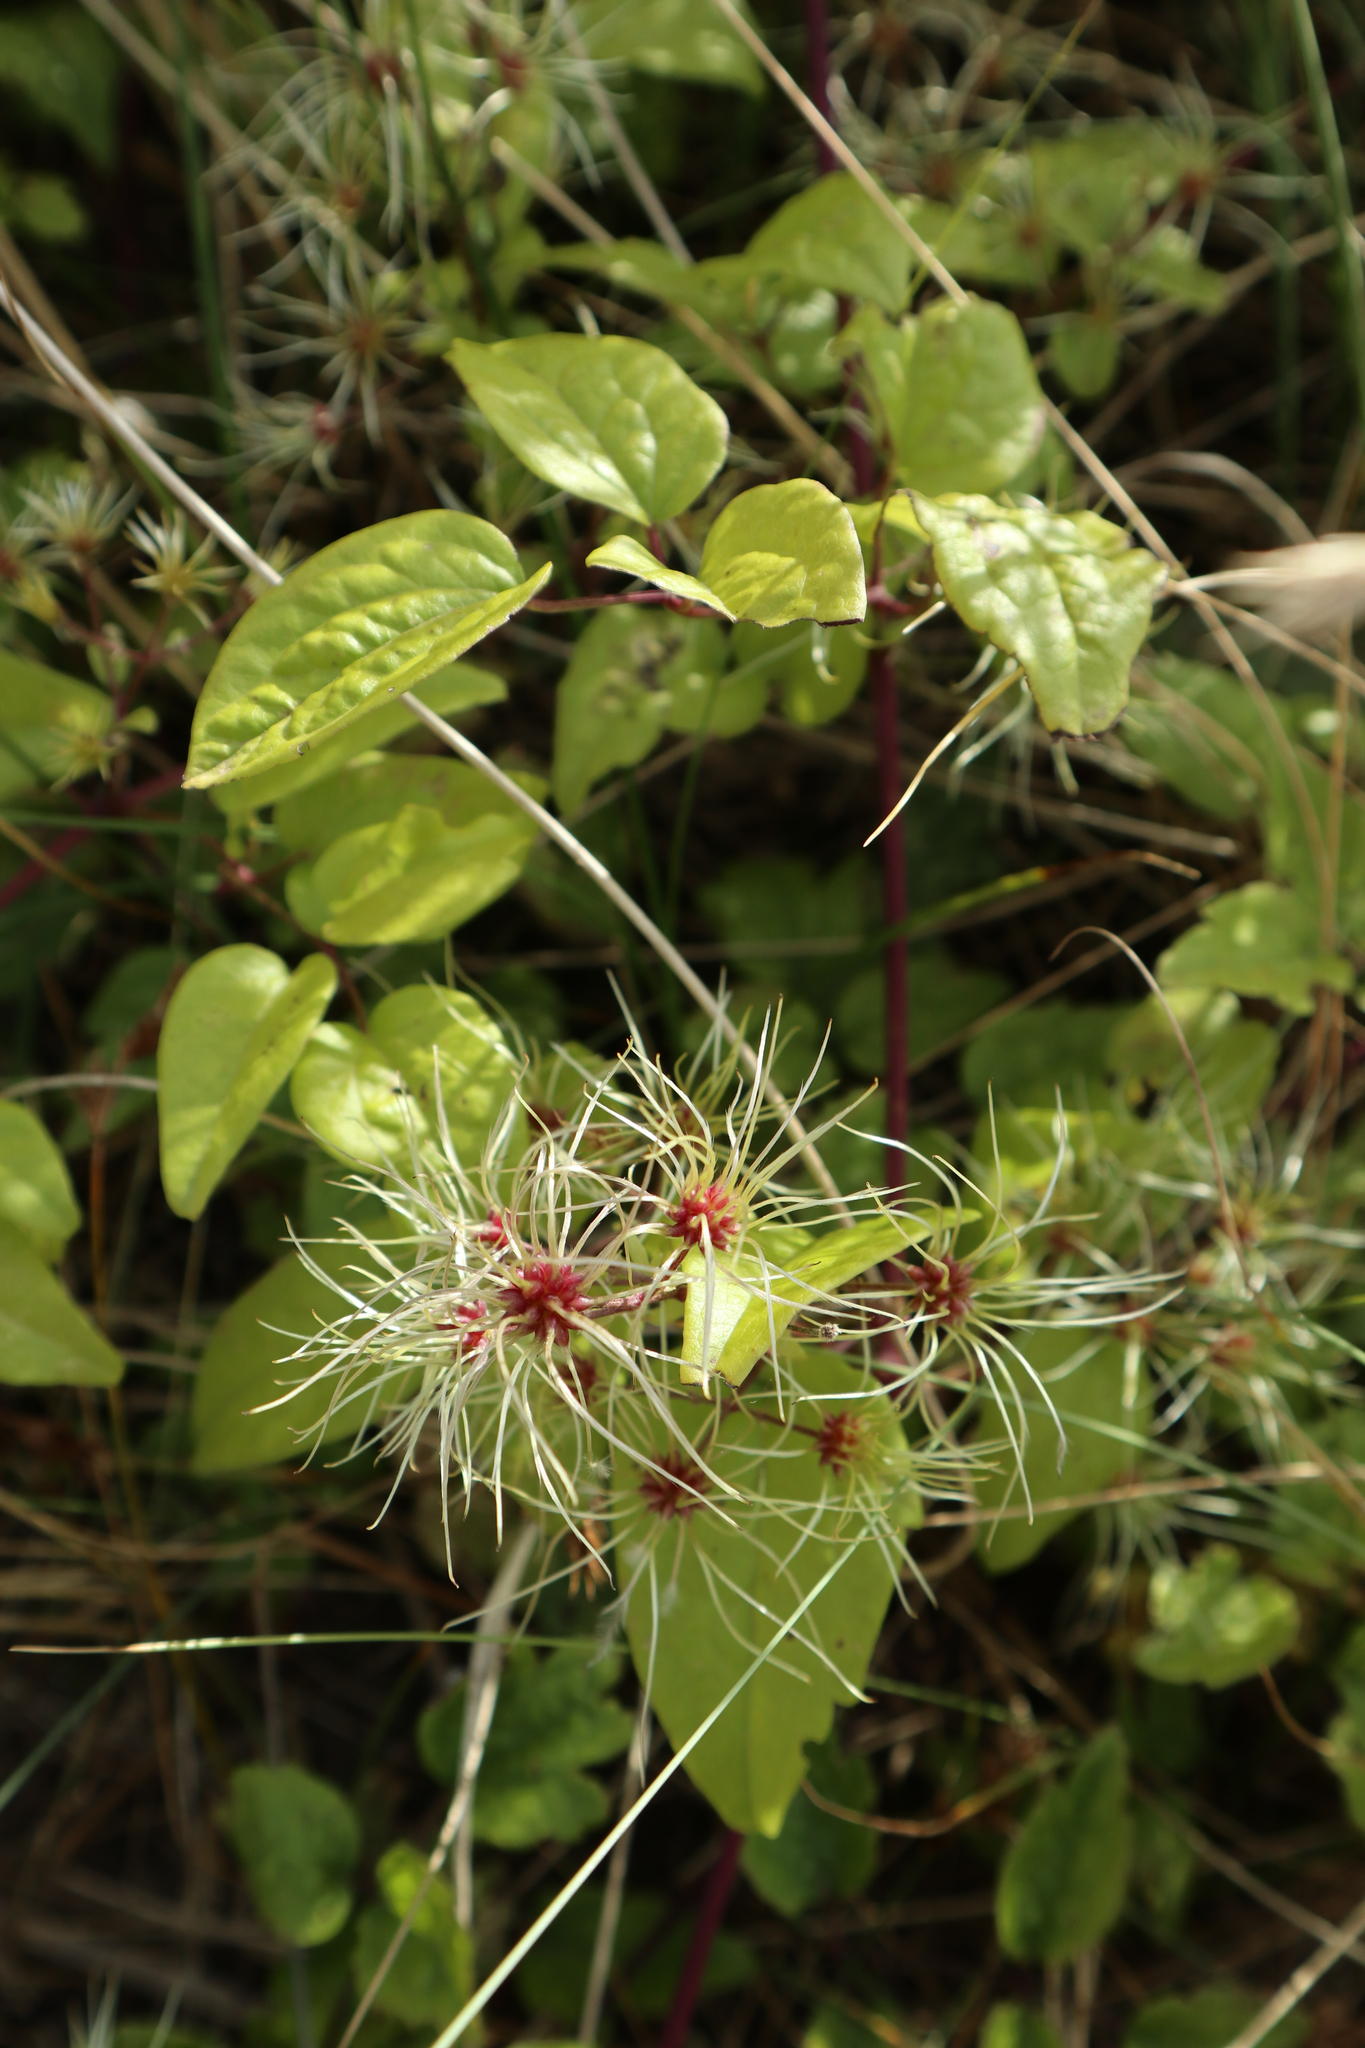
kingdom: Plantae
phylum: Tracheophyta
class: Magnoliopsida
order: Ranunculales
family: Ranunculaceae
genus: Clematis
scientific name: Clematis vitalba
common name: Evergreen clematis
